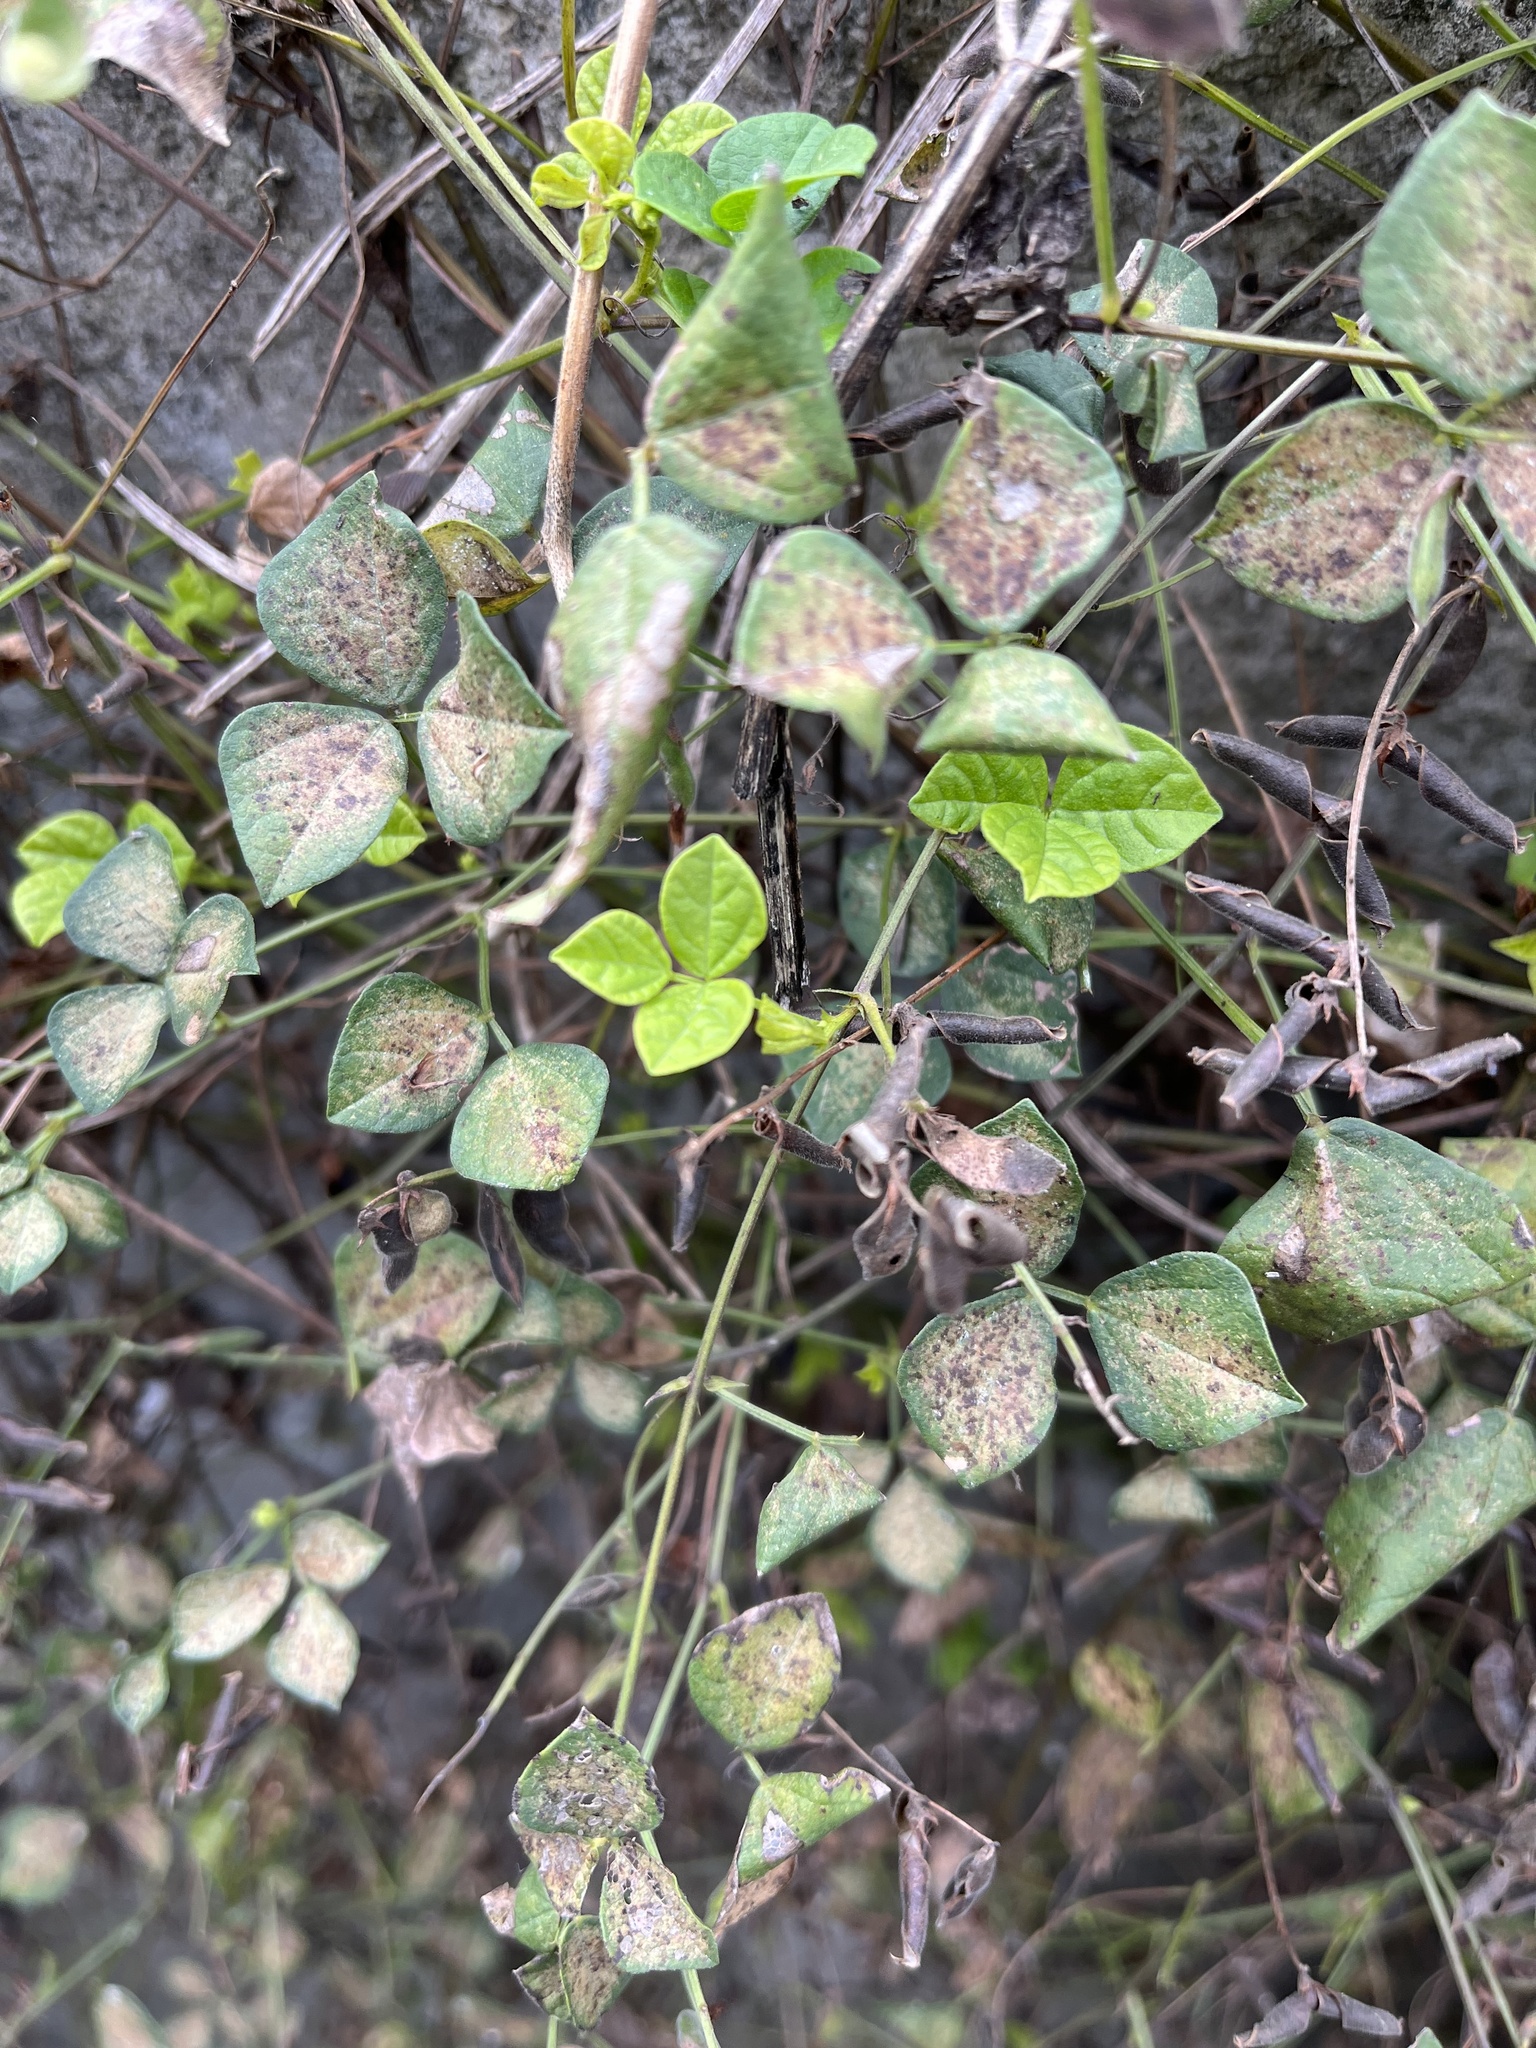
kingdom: Plantae
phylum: Tracheophyta
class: Magnoliopsida
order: Fabales
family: Fabaceae
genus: Rhynchosia
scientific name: Rhynchosia minima
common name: Least snoutbean
